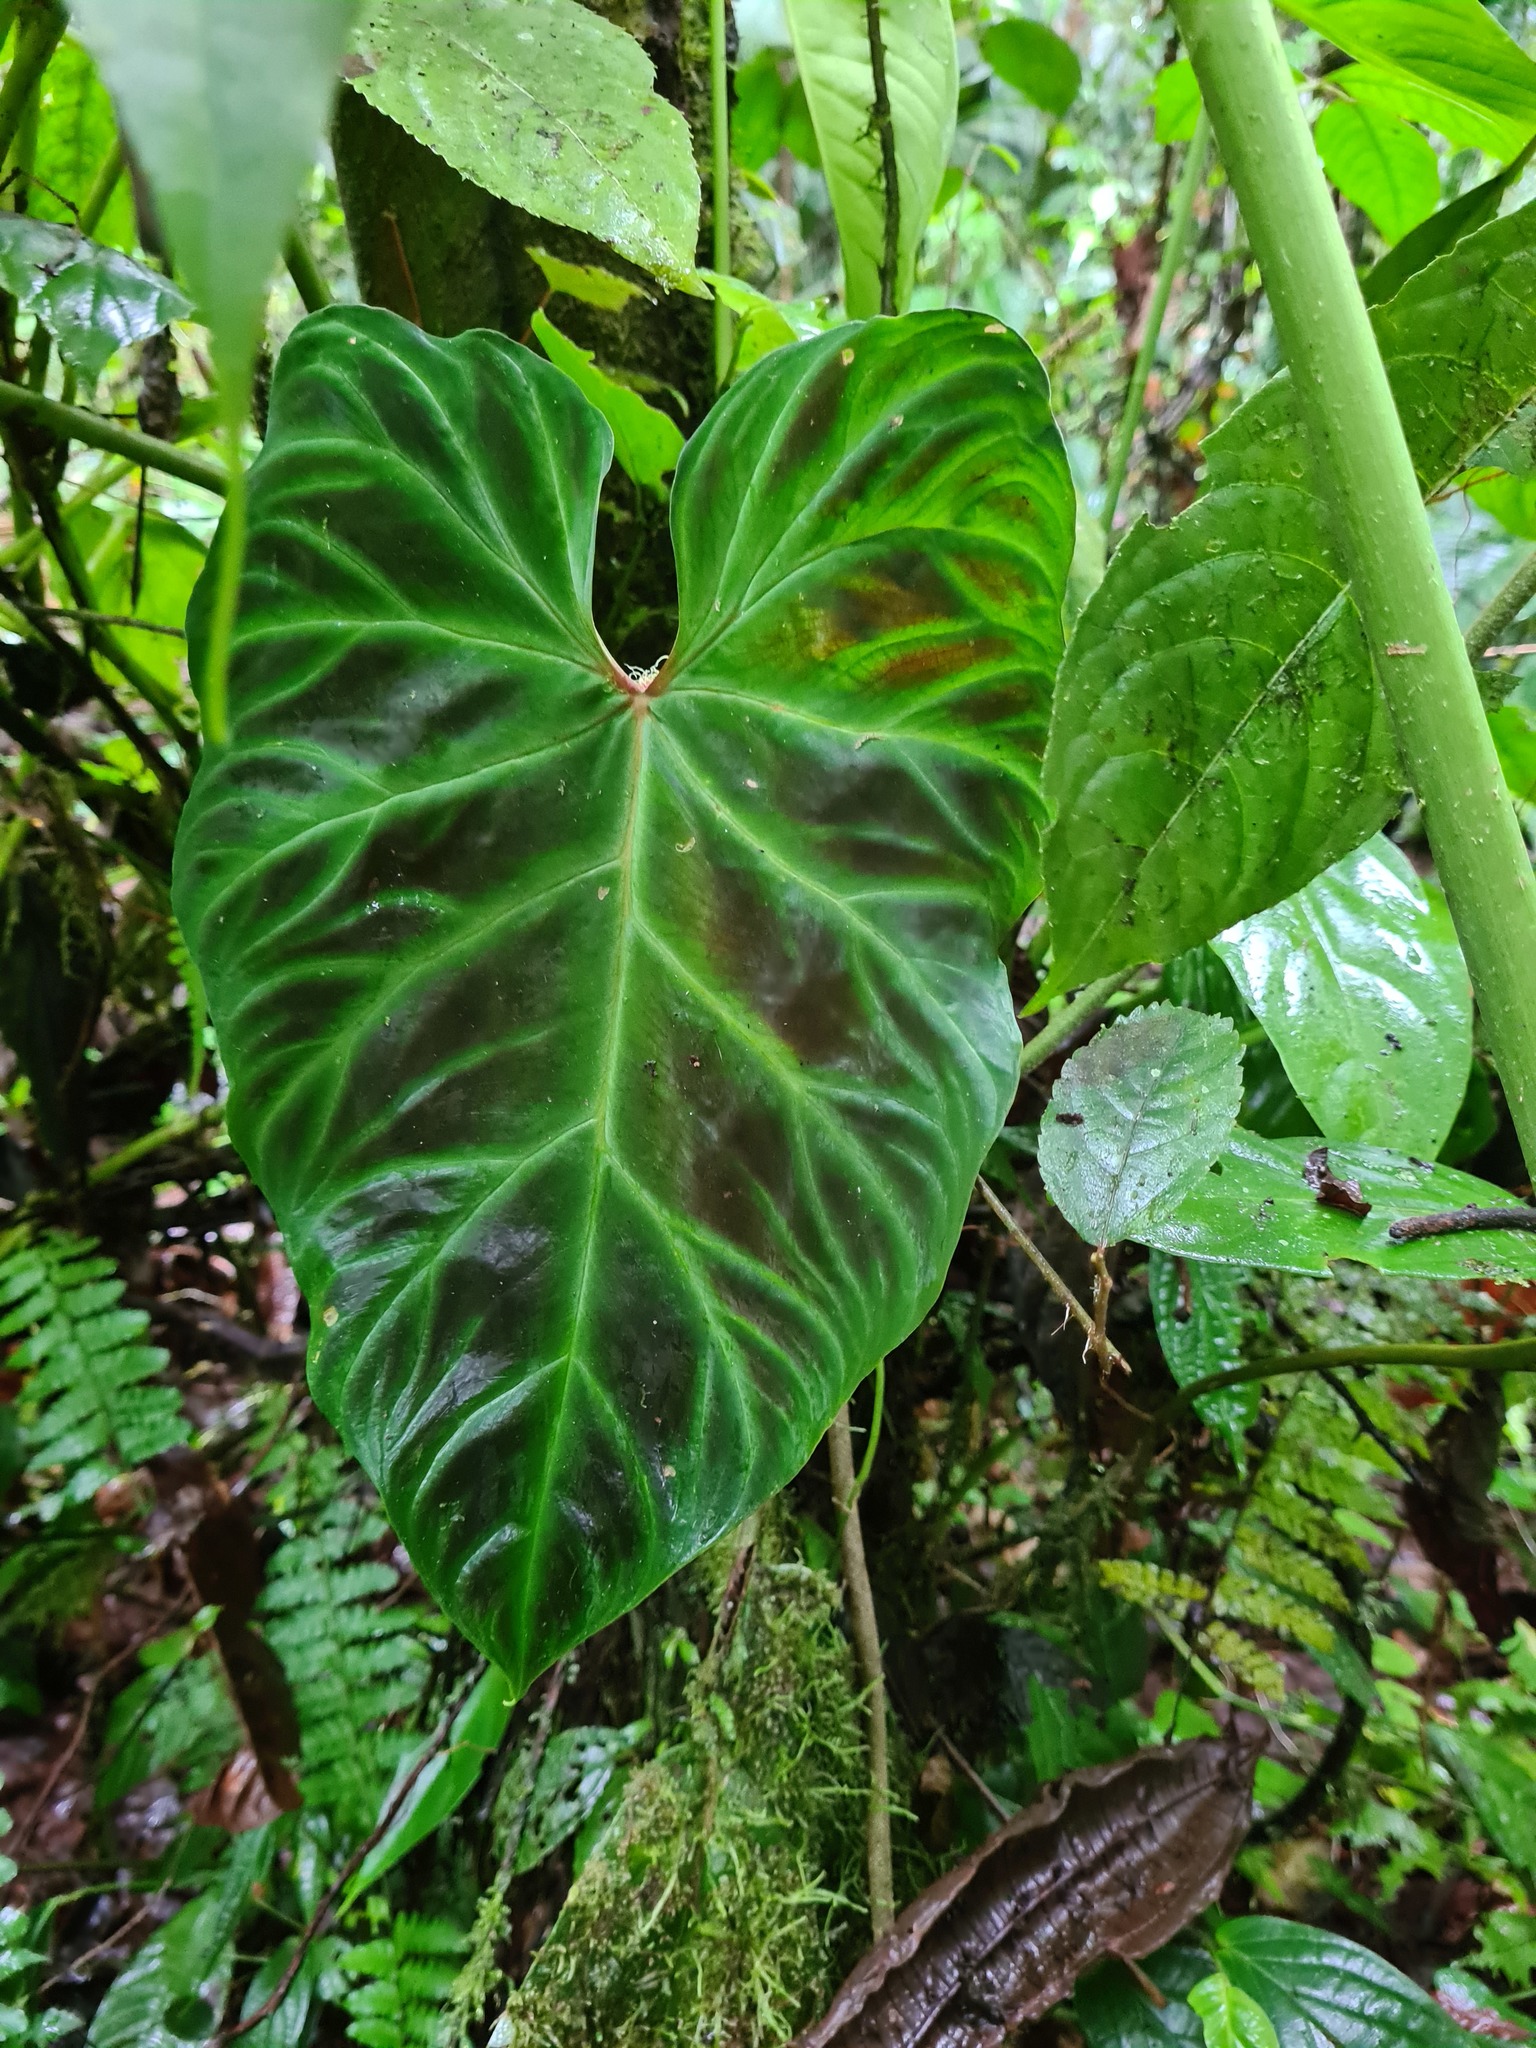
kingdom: Plantae
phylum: Tracheophyta
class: Liliopsida
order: Alismatales
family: Araceae
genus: Philodendron
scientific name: Philodendron verrucosum
